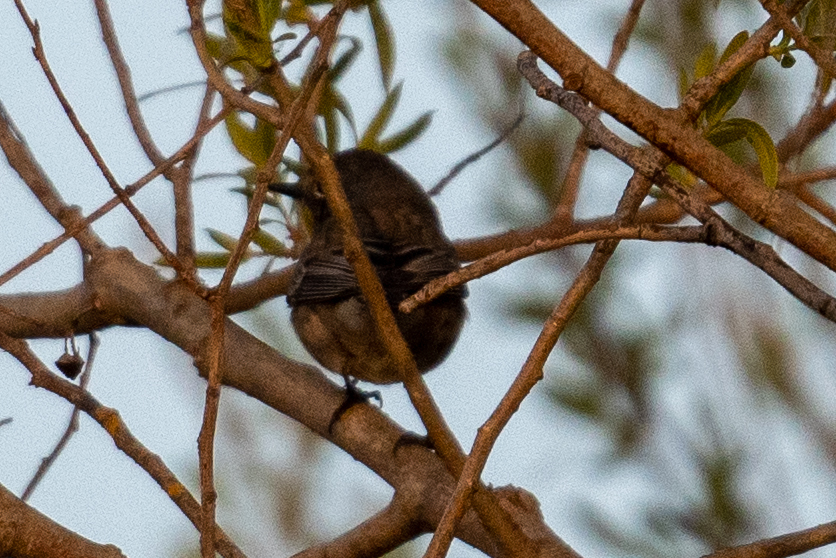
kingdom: Animalia
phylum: Chordata
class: Aves
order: Passeriformes
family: Parulidae
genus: Setophaga
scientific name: Setophaga auduboni
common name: Audubon's warbler
